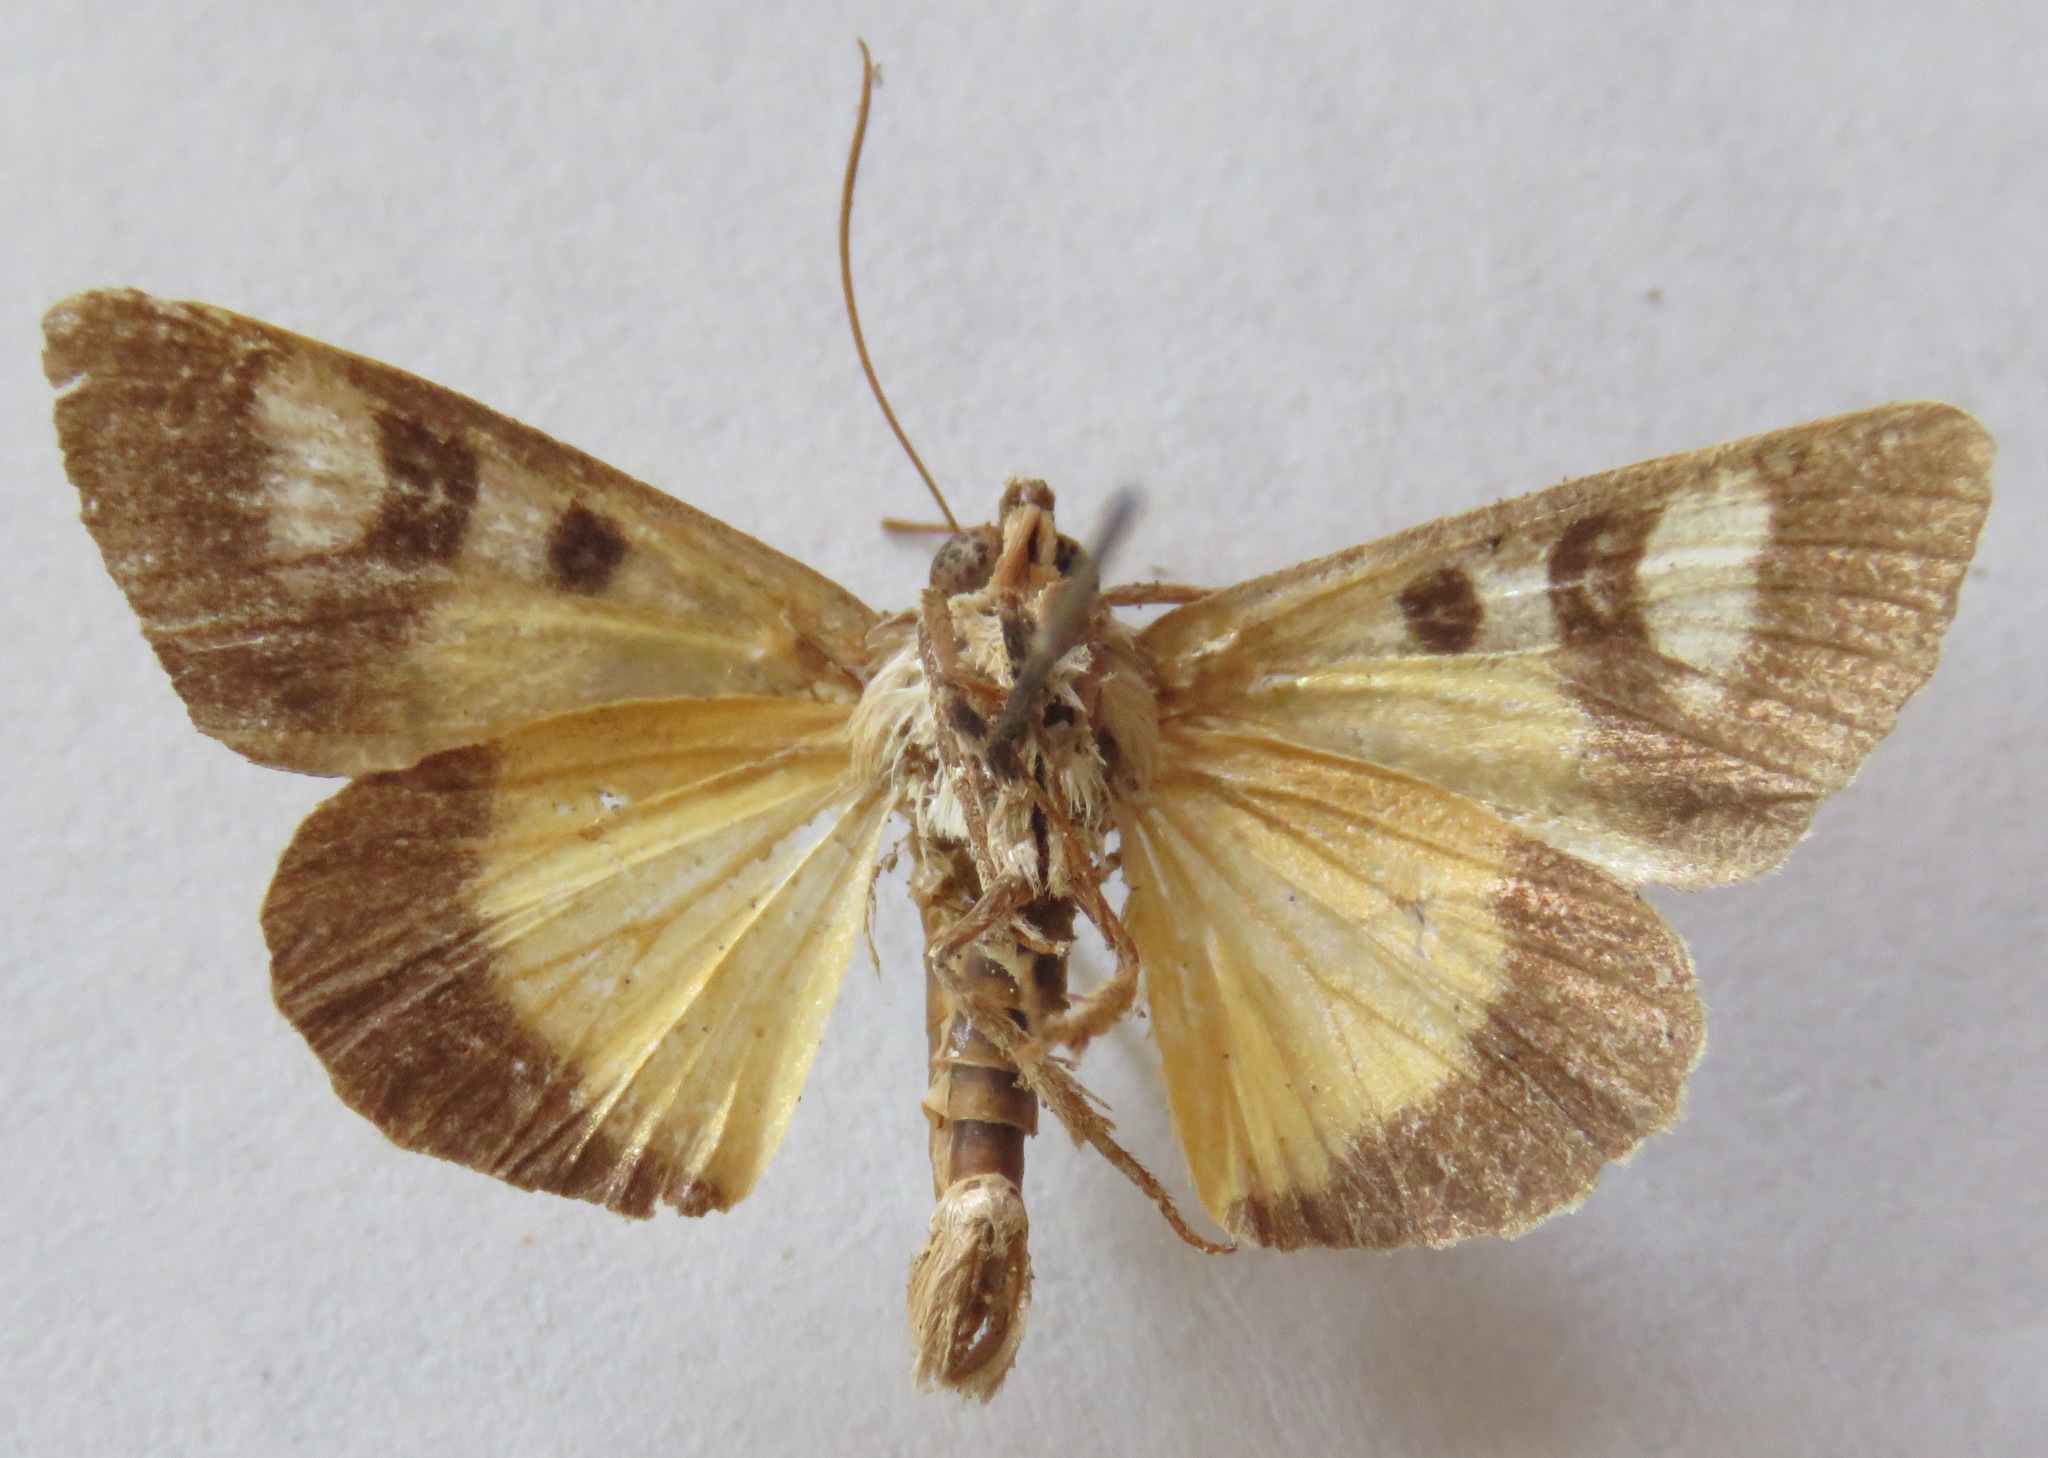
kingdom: Animalia
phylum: Arthropoda
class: Insecta
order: Lepidoptera
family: Noctuidae
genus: Neotuerta
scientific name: Neotuerta sabulosa
